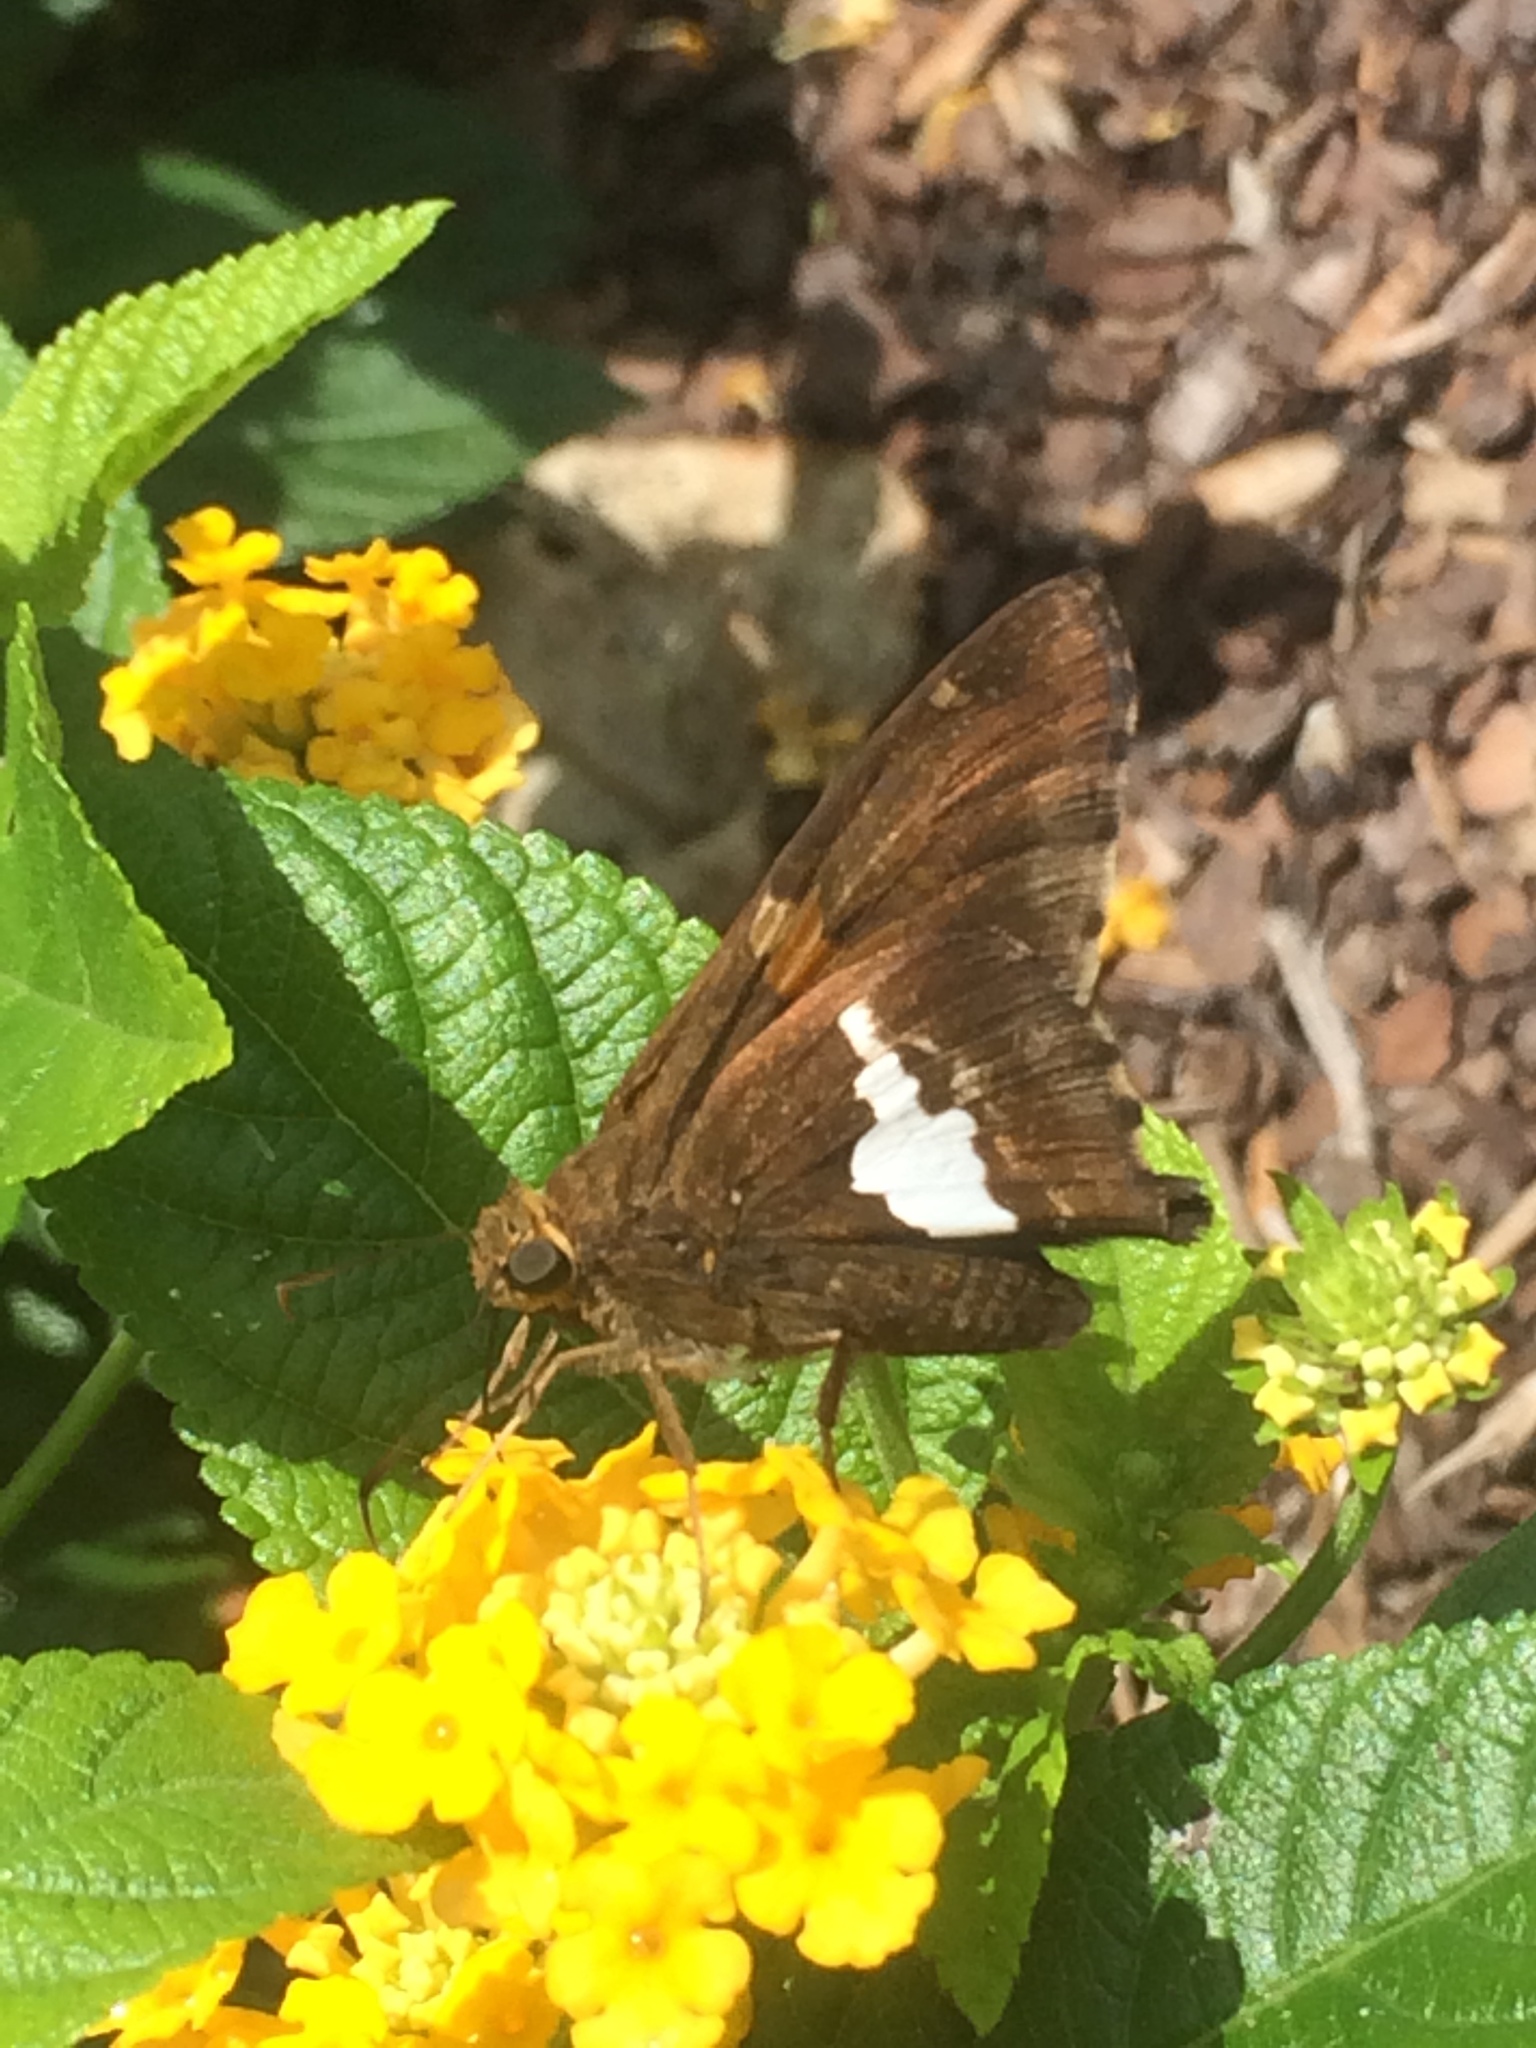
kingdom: Animalia
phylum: Arthropoda
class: Insecta
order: Lepidoptera
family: Hesperiidae
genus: Epargyreus
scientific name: Epargyreus clarus
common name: Silver-spotted skipper
